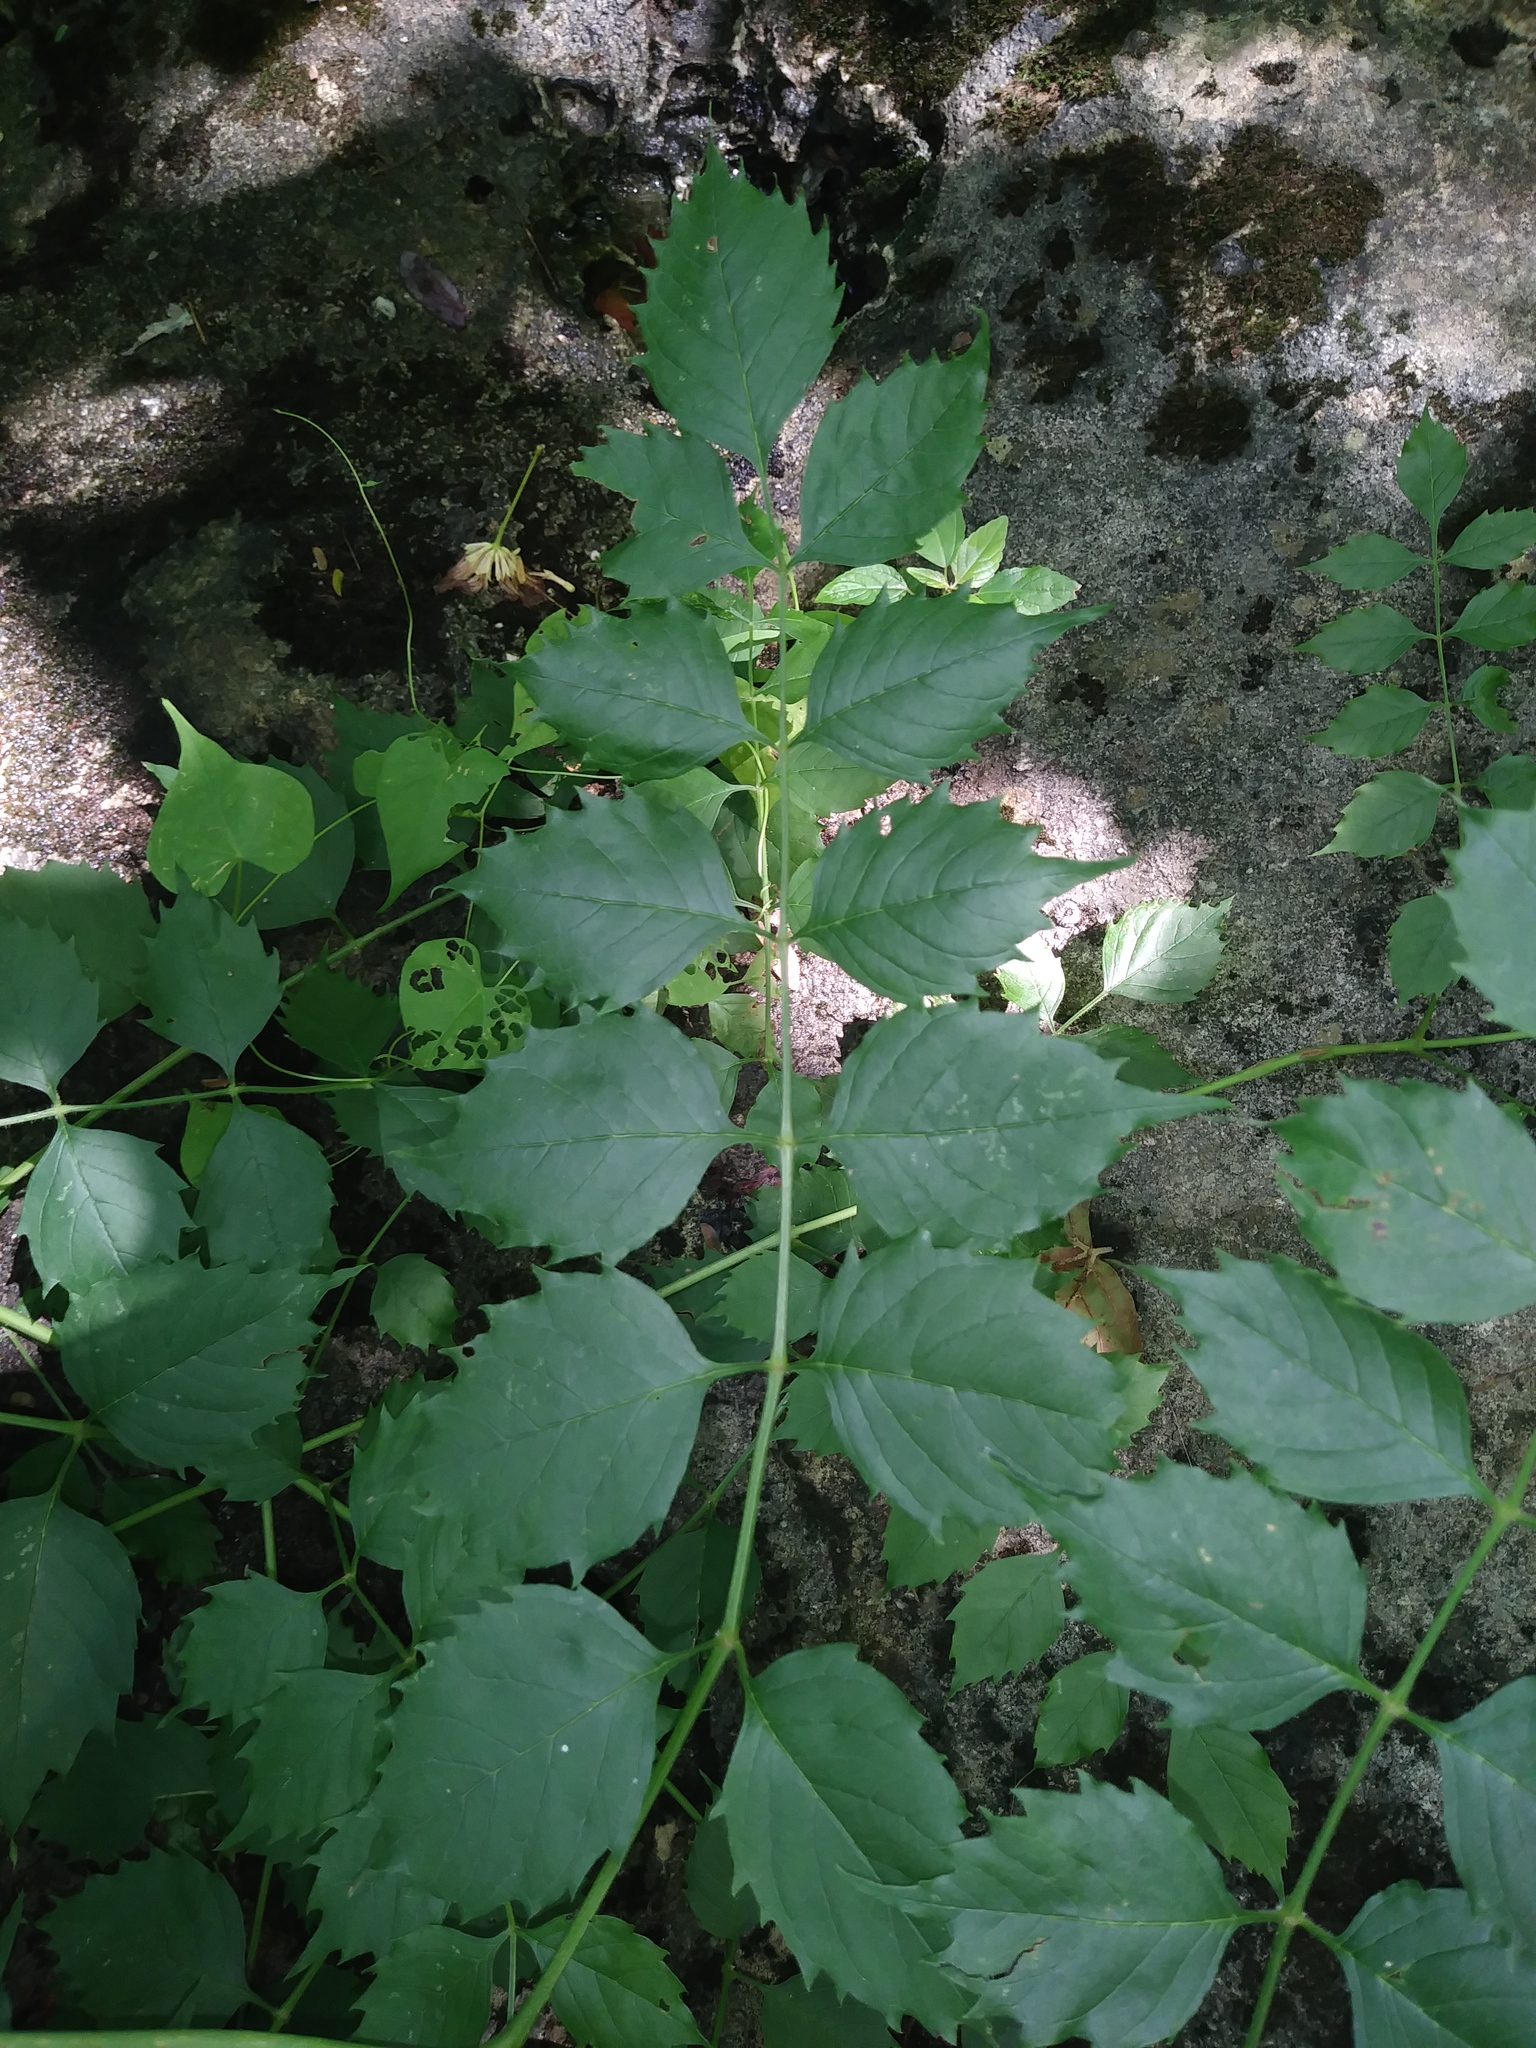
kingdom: Plantae
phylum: Tracheophyta
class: Magnoliopsida
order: Lamiales
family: Bignoniaceae
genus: Campsis
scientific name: Campsis radicans
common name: Trumpet-creeper
